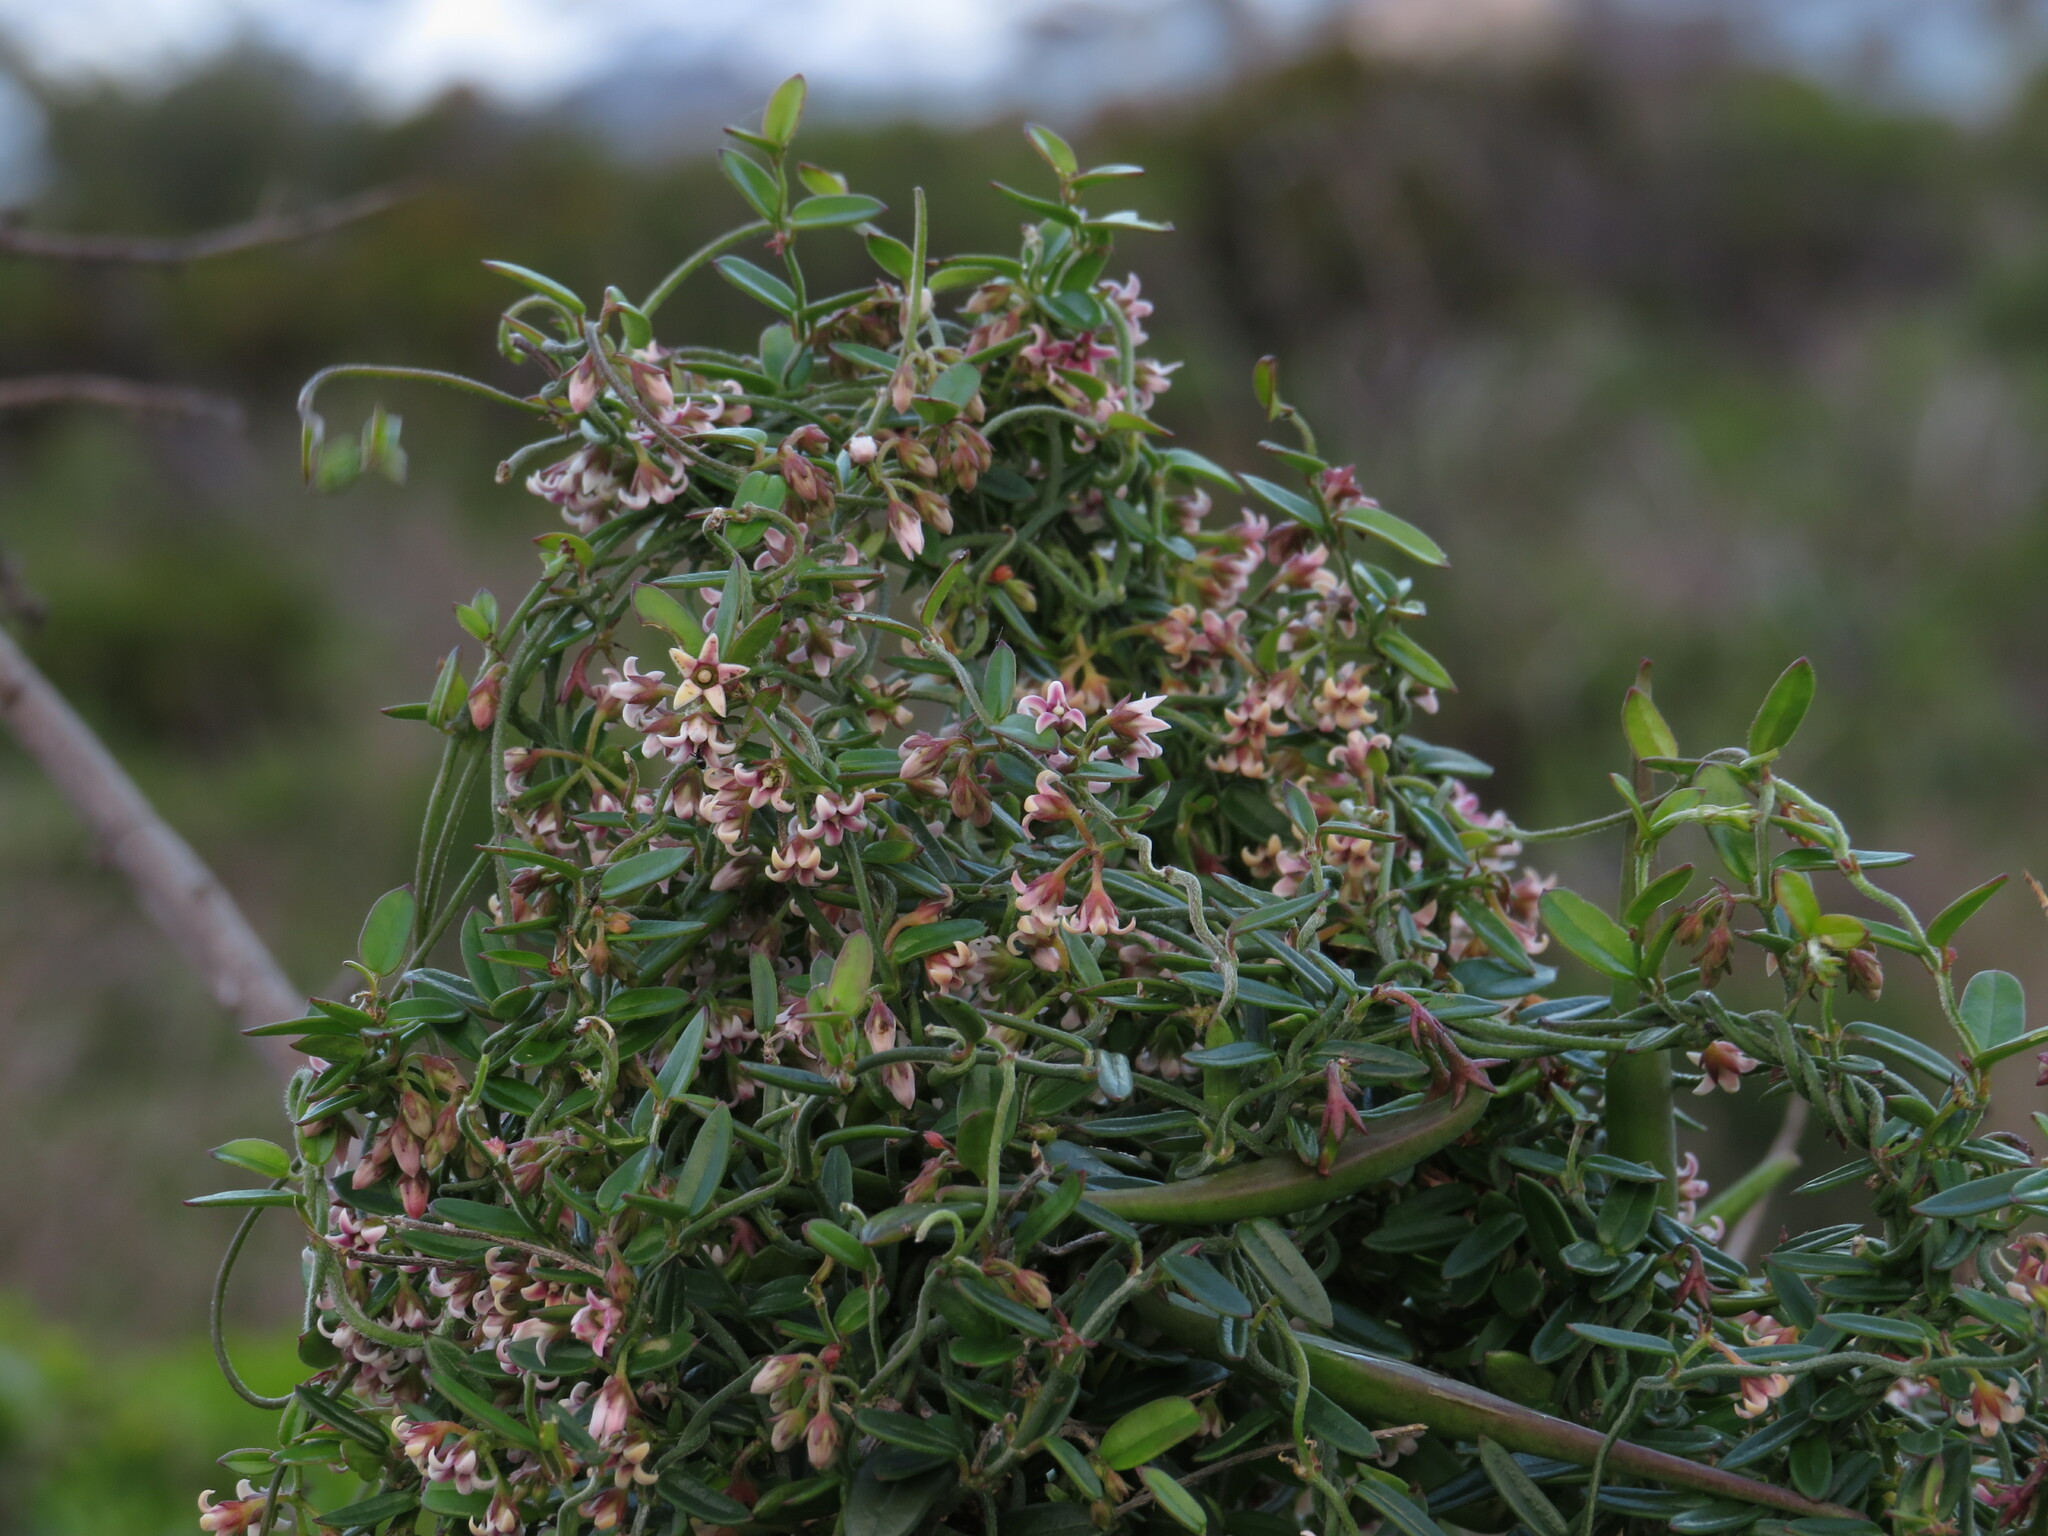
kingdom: Plantae
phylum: Tracheophyta
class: Magnoliopsida
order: Gentianales
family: Apocynaceae
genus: Astephanus
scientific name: Astephanus triflorus
